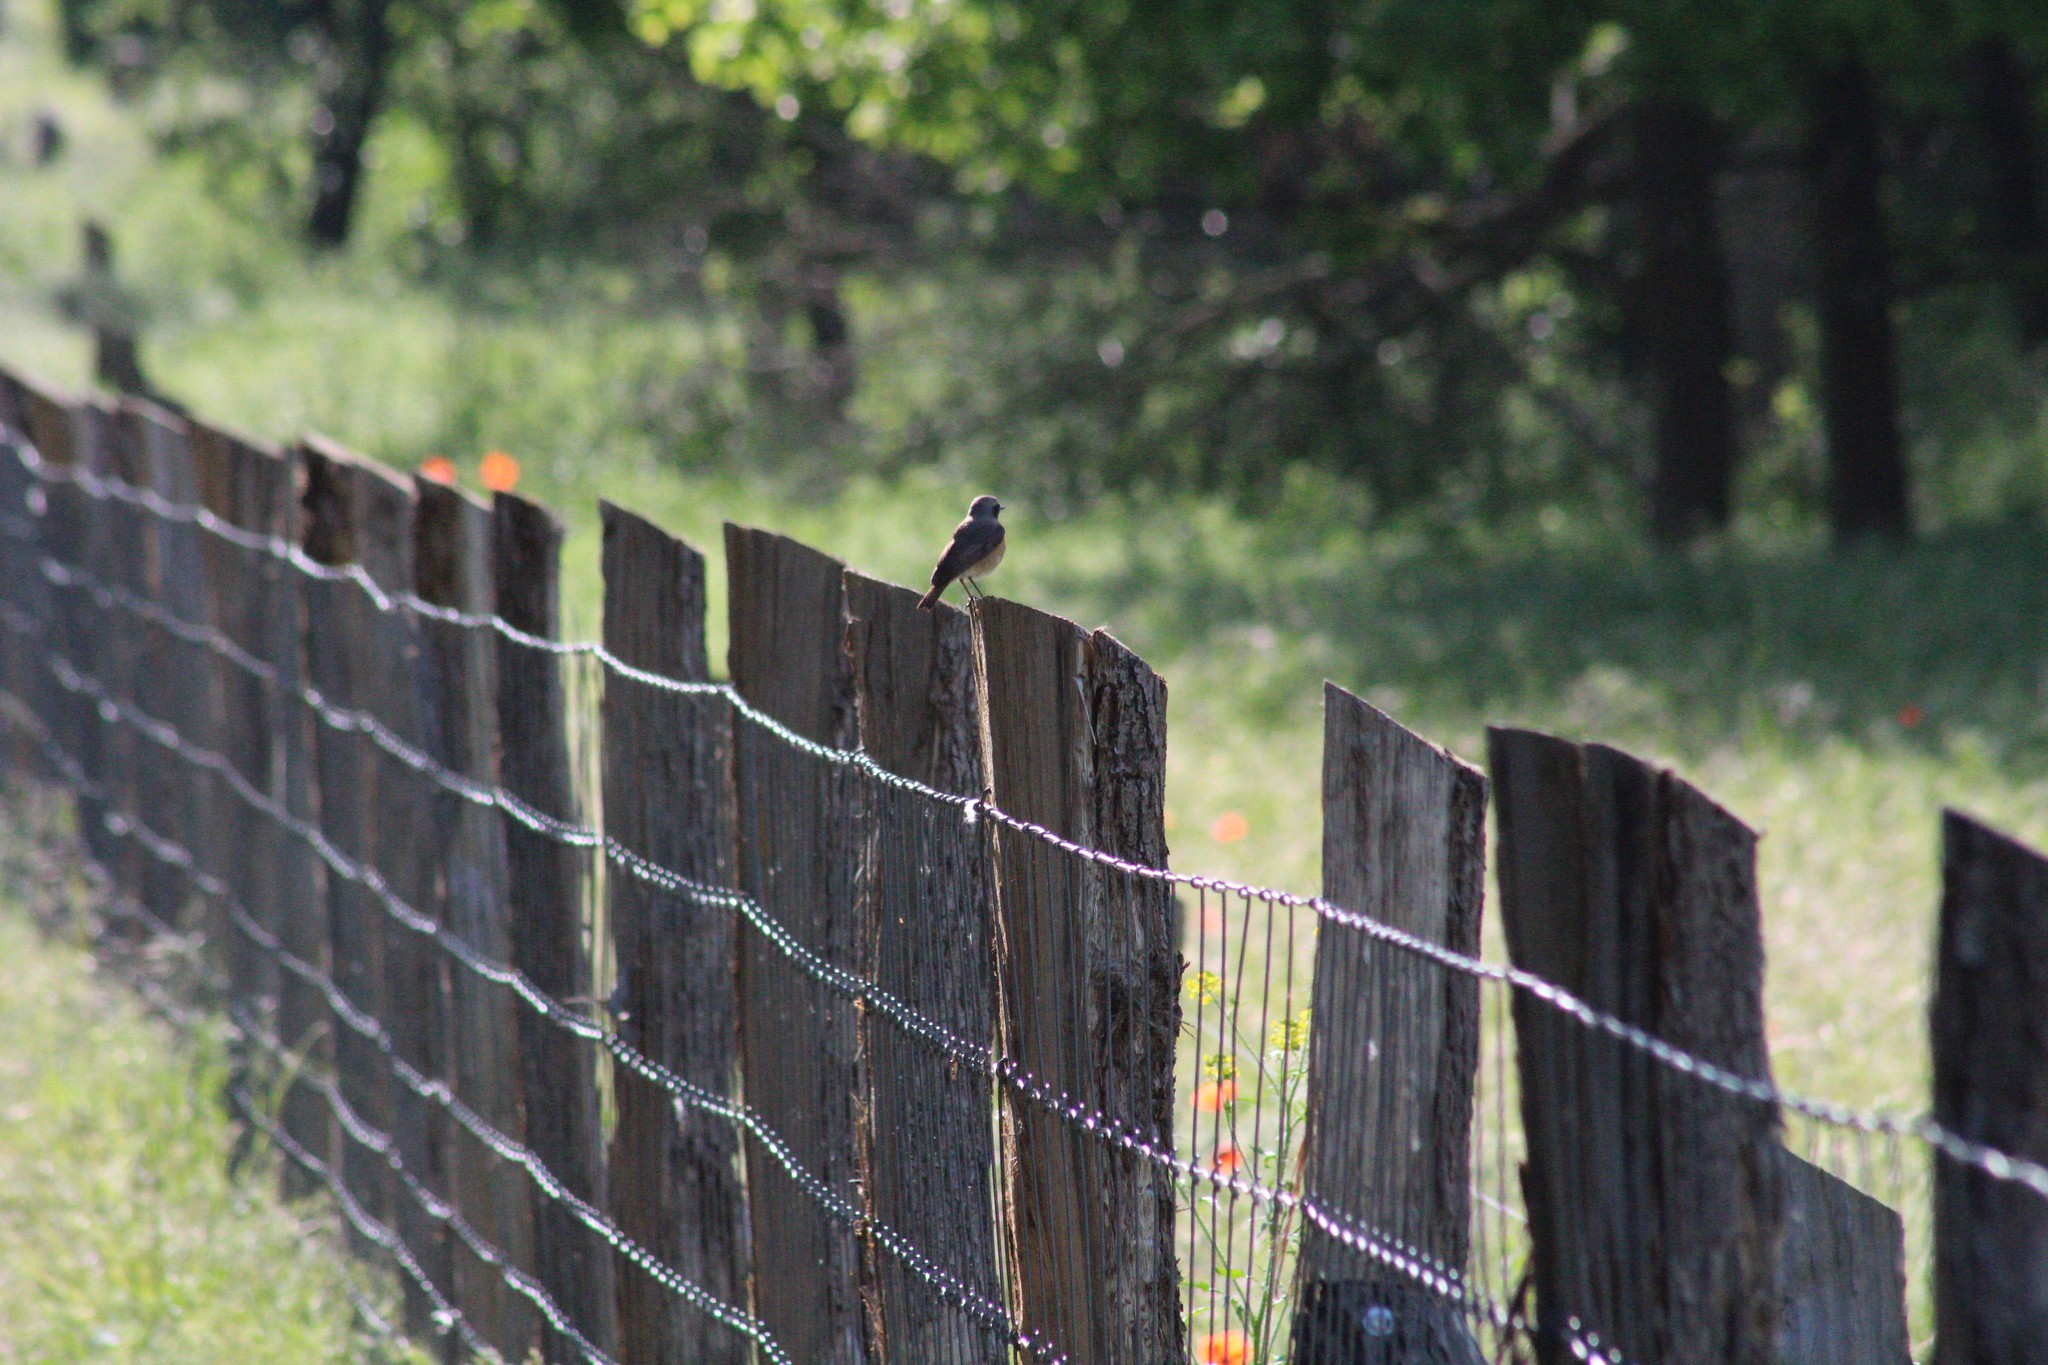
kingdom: Animalia
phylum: Chordata
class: Aves
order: Passeriformes
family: Muscicapidae
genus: Phoenicurus
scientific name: Phoenicurus phoenicurus
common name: Common redstart
